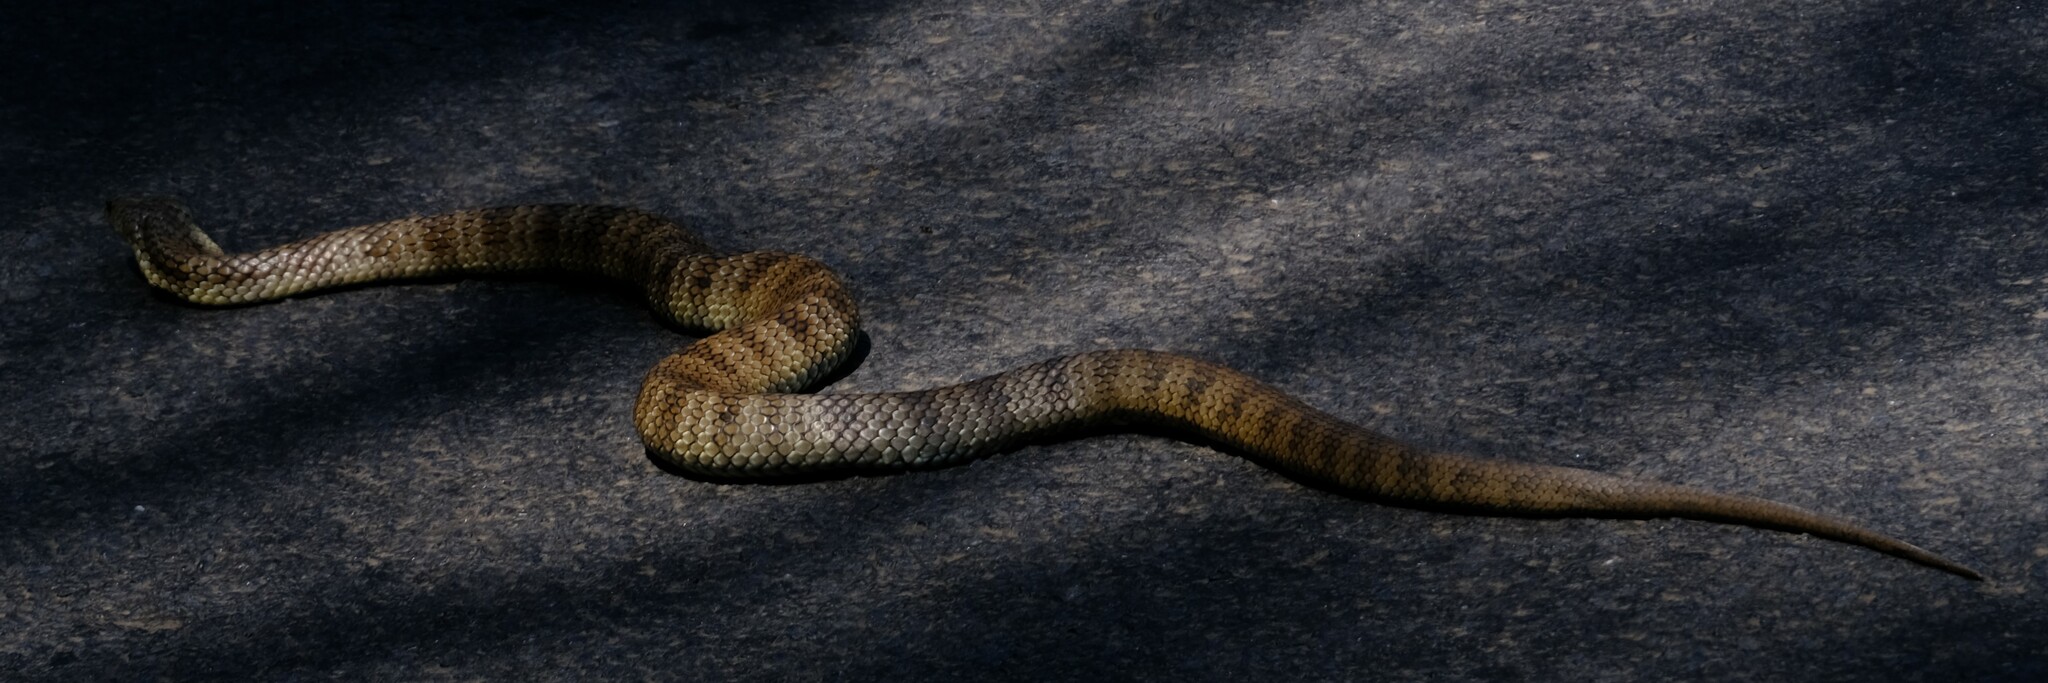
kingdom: Animalia
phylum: Chordata
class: Squamata
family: Elapidae
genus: Notechis
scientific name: Notechis scutatus
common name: Mainland tiger snake
